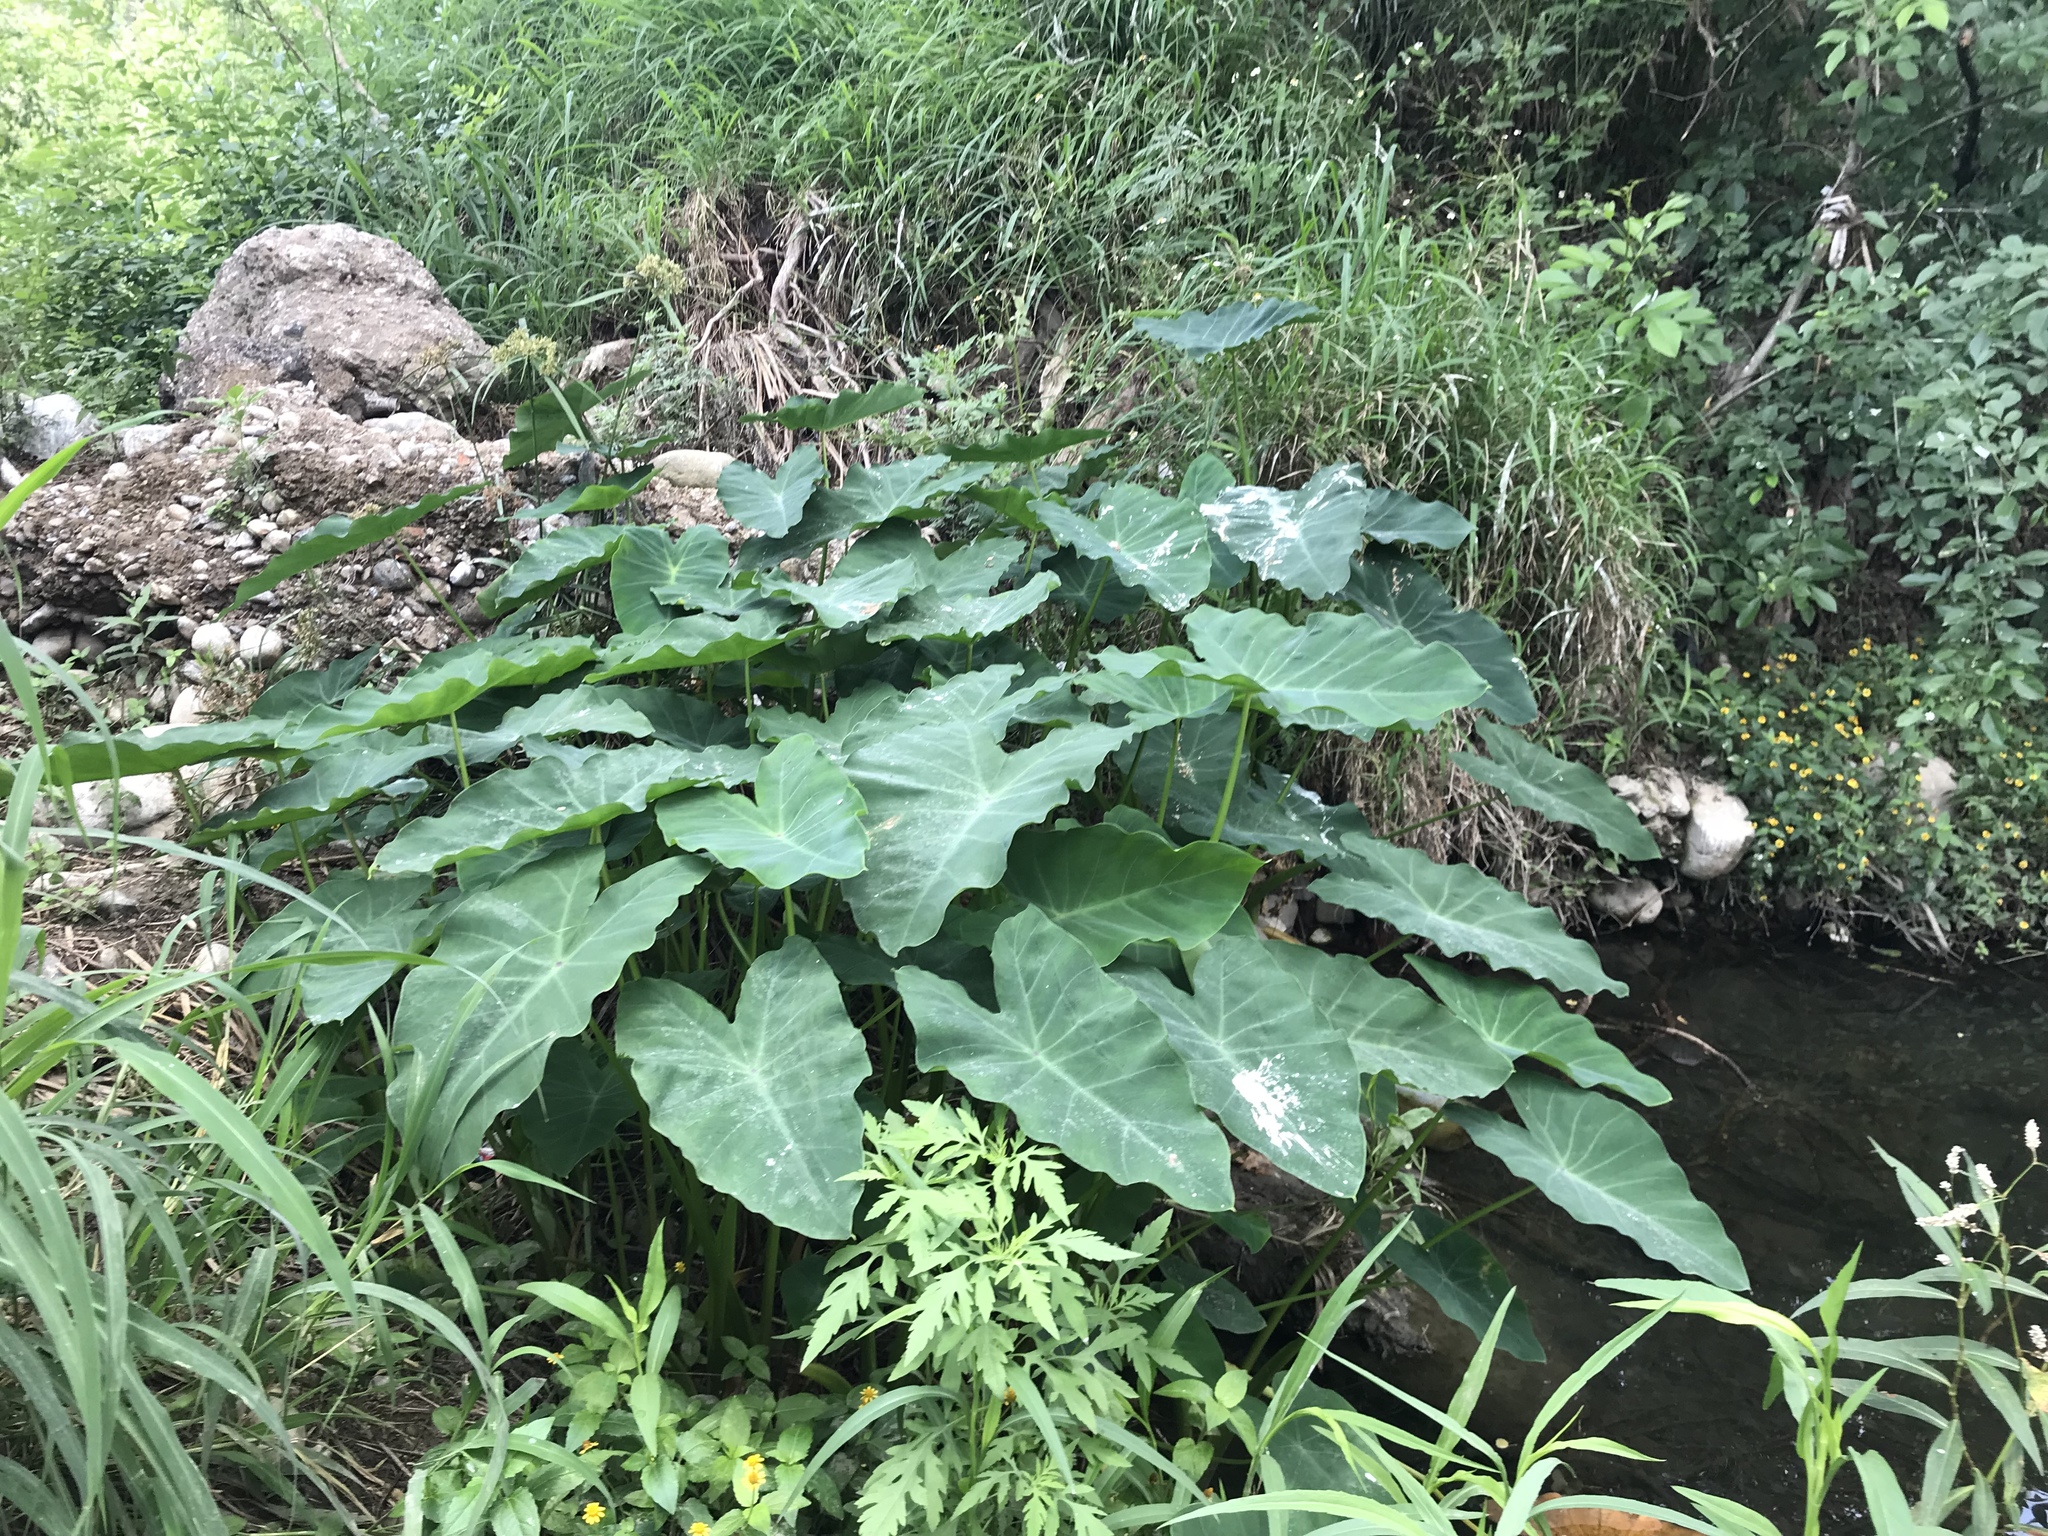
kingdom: Plantae
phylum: Tracheophyta
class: Liliopsida
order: Alismatales
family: Araceae
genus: Colocasia
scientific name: Colocasia esculenta
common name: Taro
